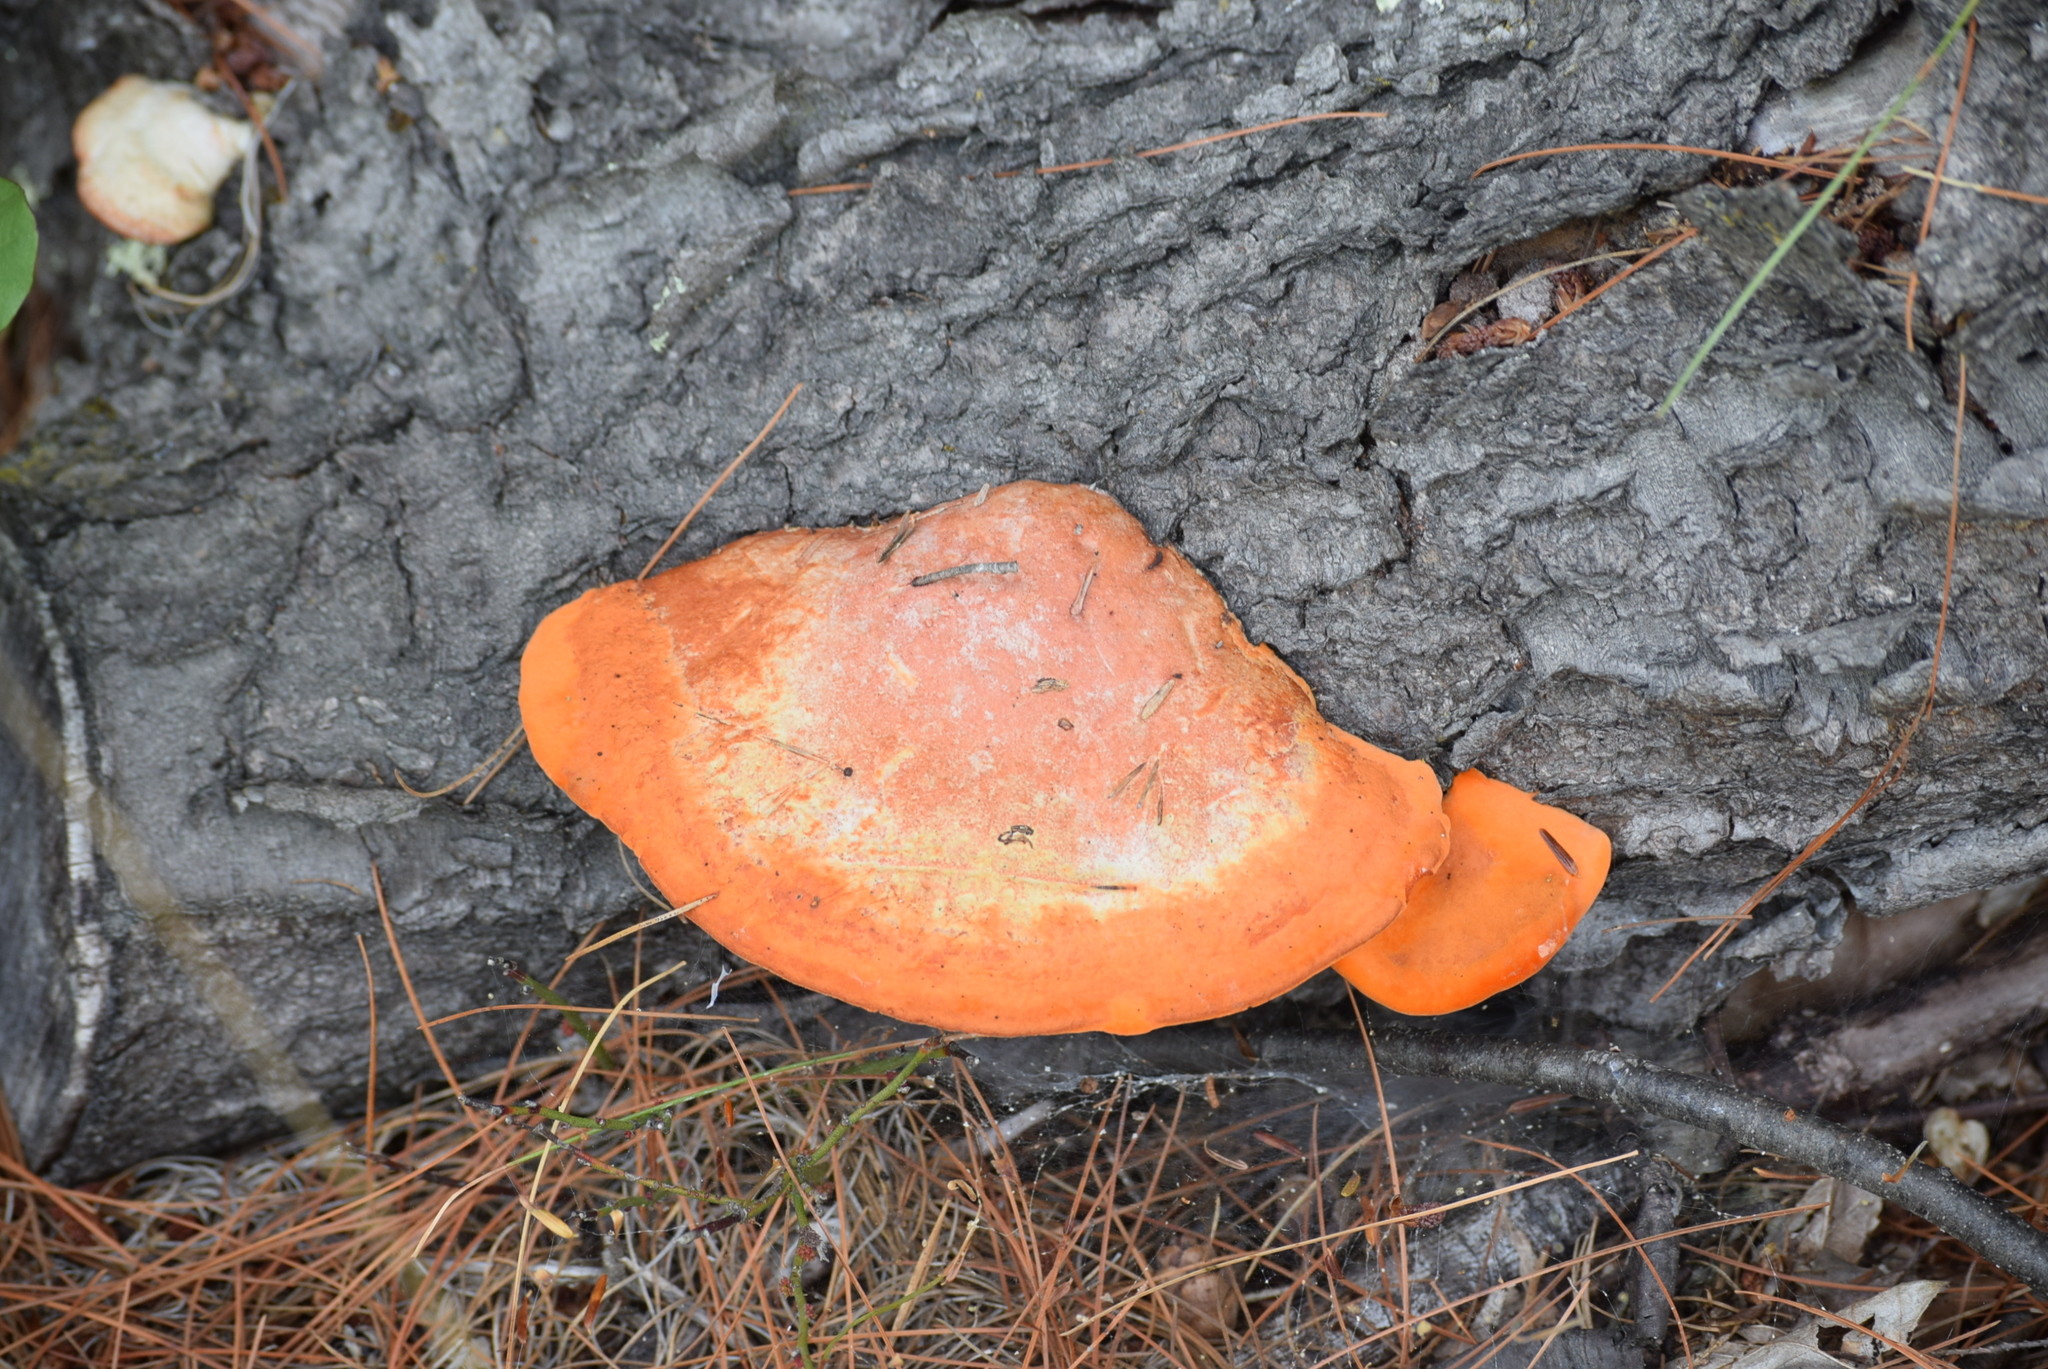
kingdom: Fungi
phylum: Basidiomycota
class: Agaricomycetes
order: Polyporales
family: Polyporaceae
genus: Trametes
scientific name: Trametes cinnabarina
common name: Northern cinnabar polypore
